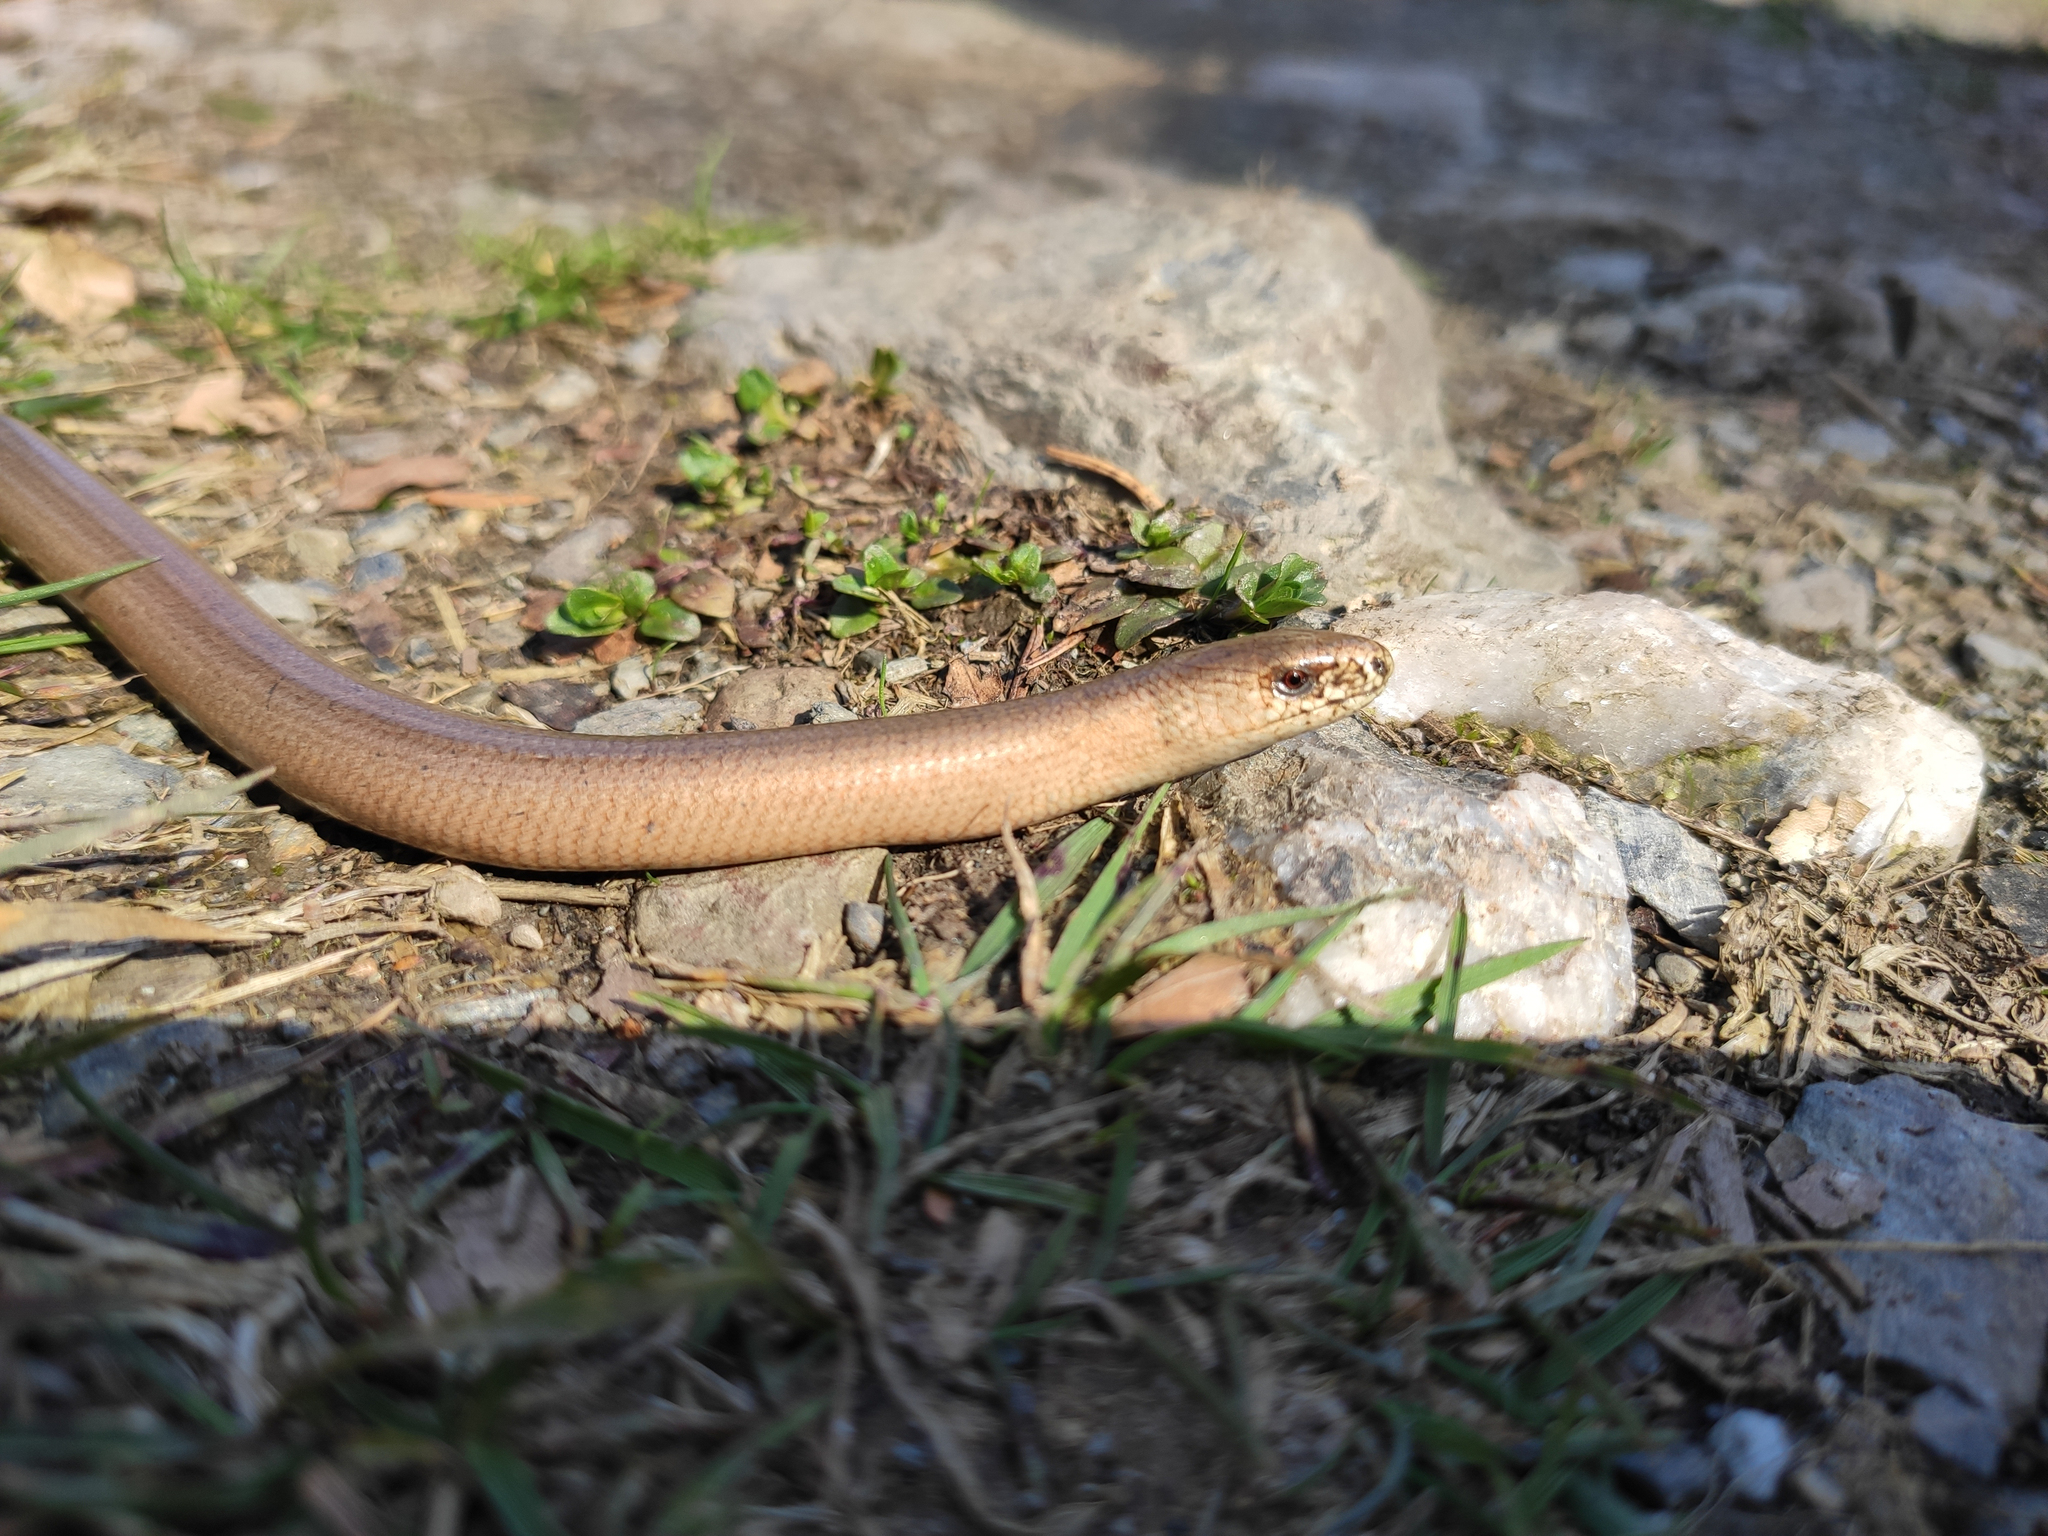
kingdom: Animalia
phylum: Chordata
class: Squamata
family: Anguidae
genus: Anguis
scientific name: Anguis fragilis
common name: Slow worm
